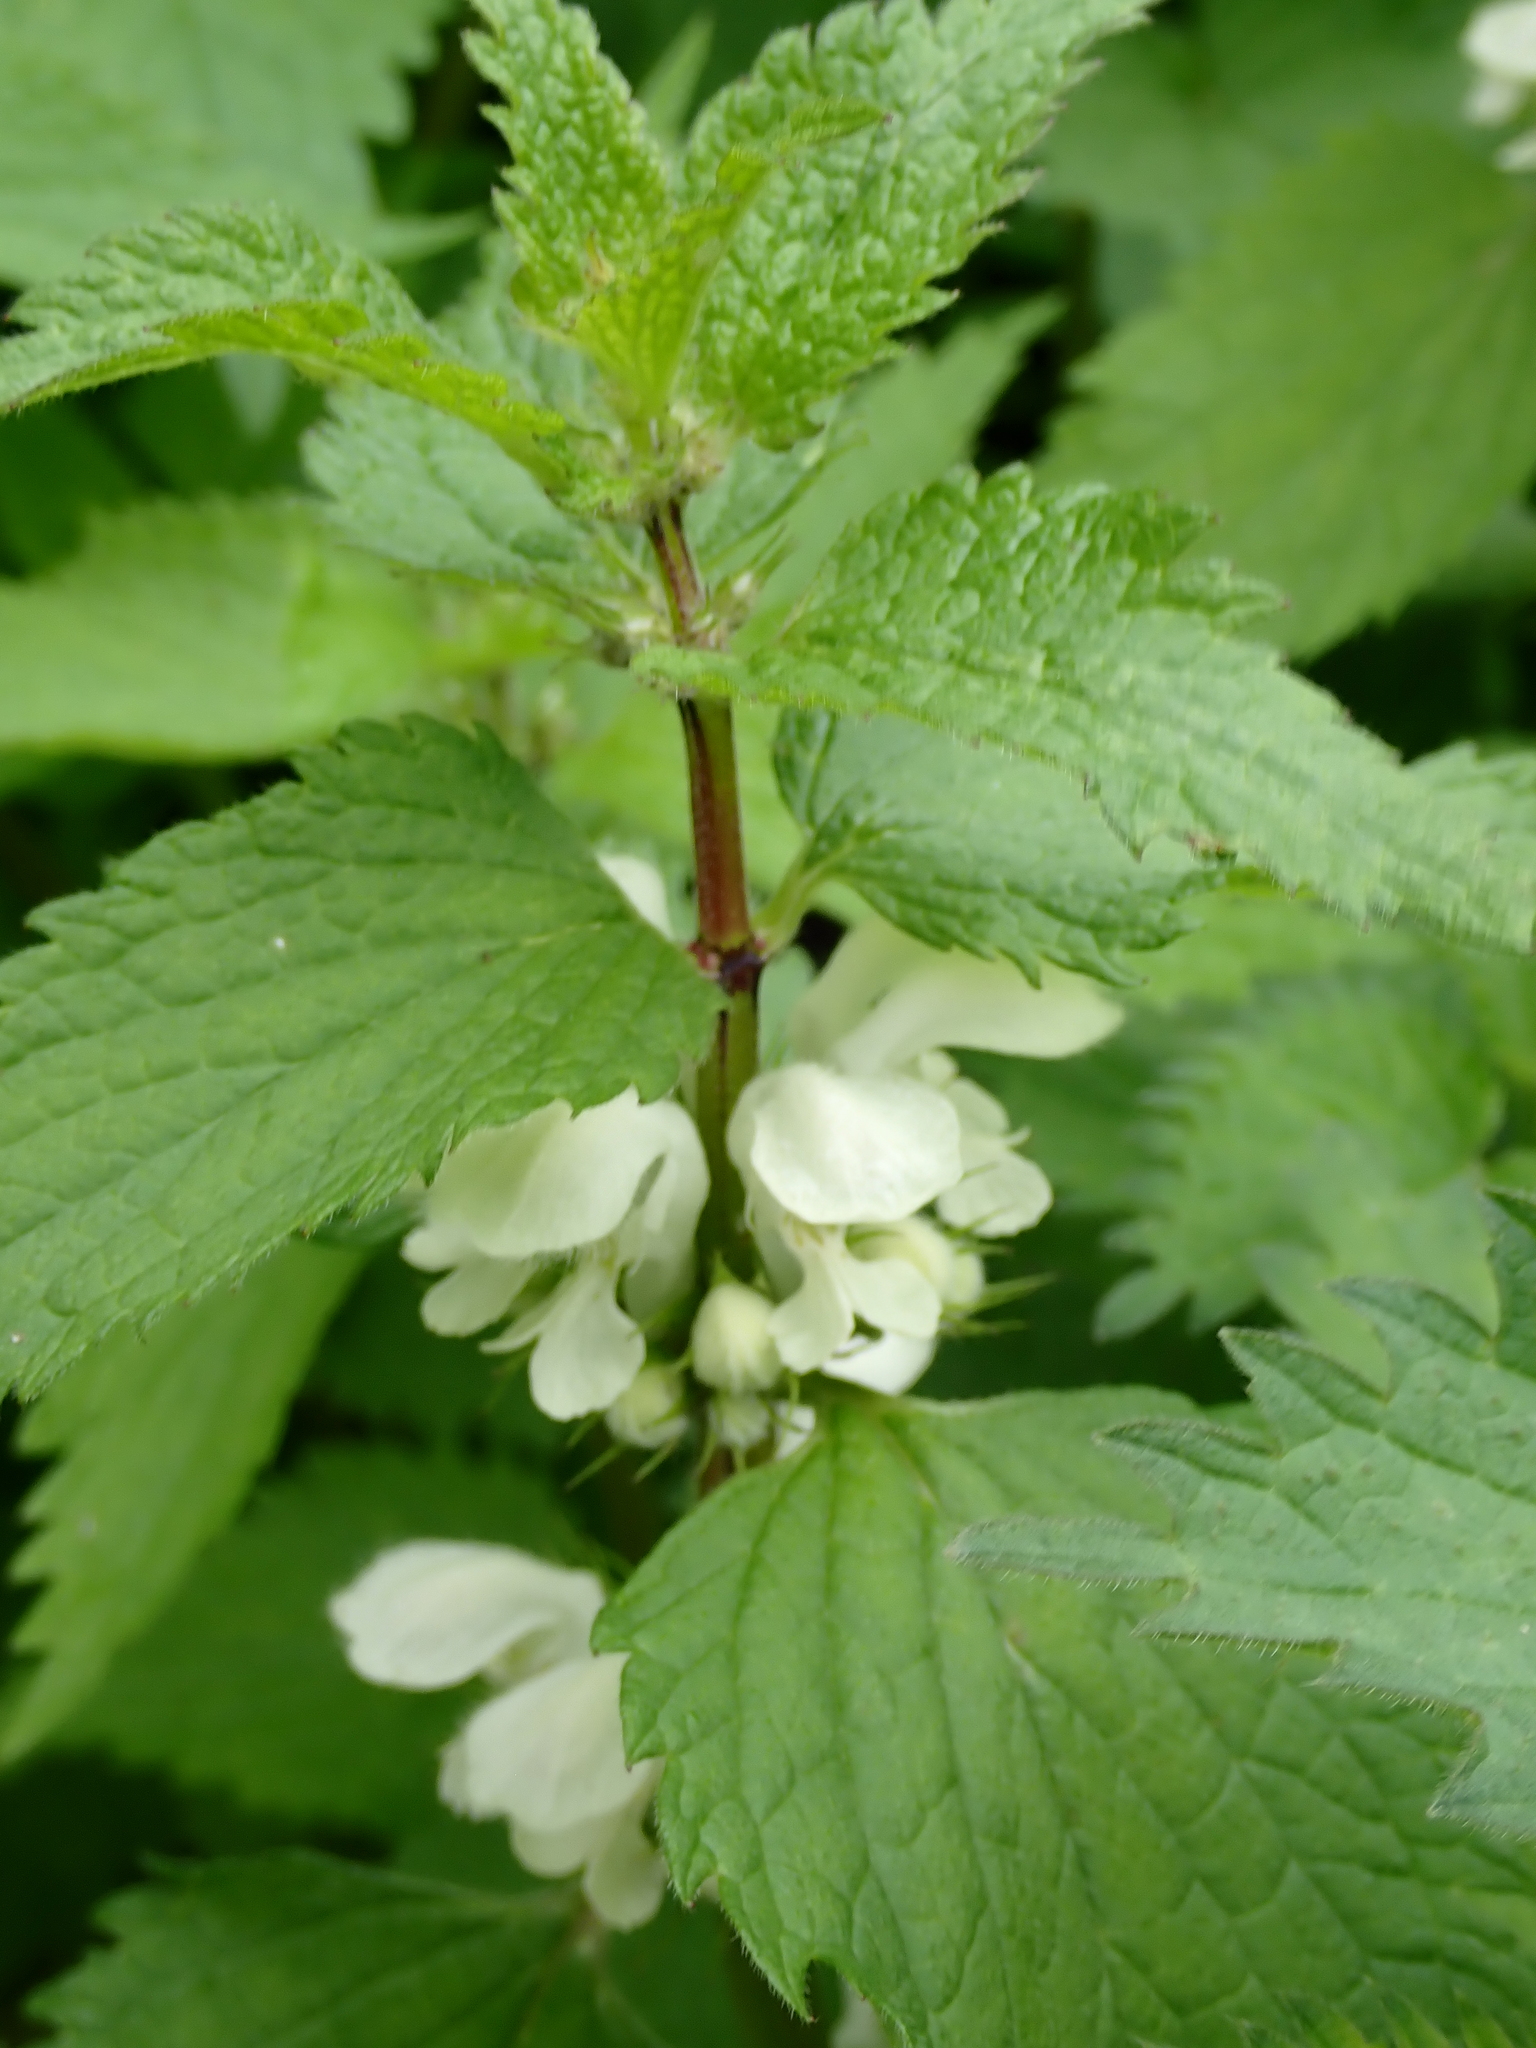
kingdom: Plantae
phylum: Tracheophyta
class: Magnoliopsida
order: Lamiales
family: Lamiaceae
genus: Lamium
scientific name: Lamium album
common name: White dead-nettle
